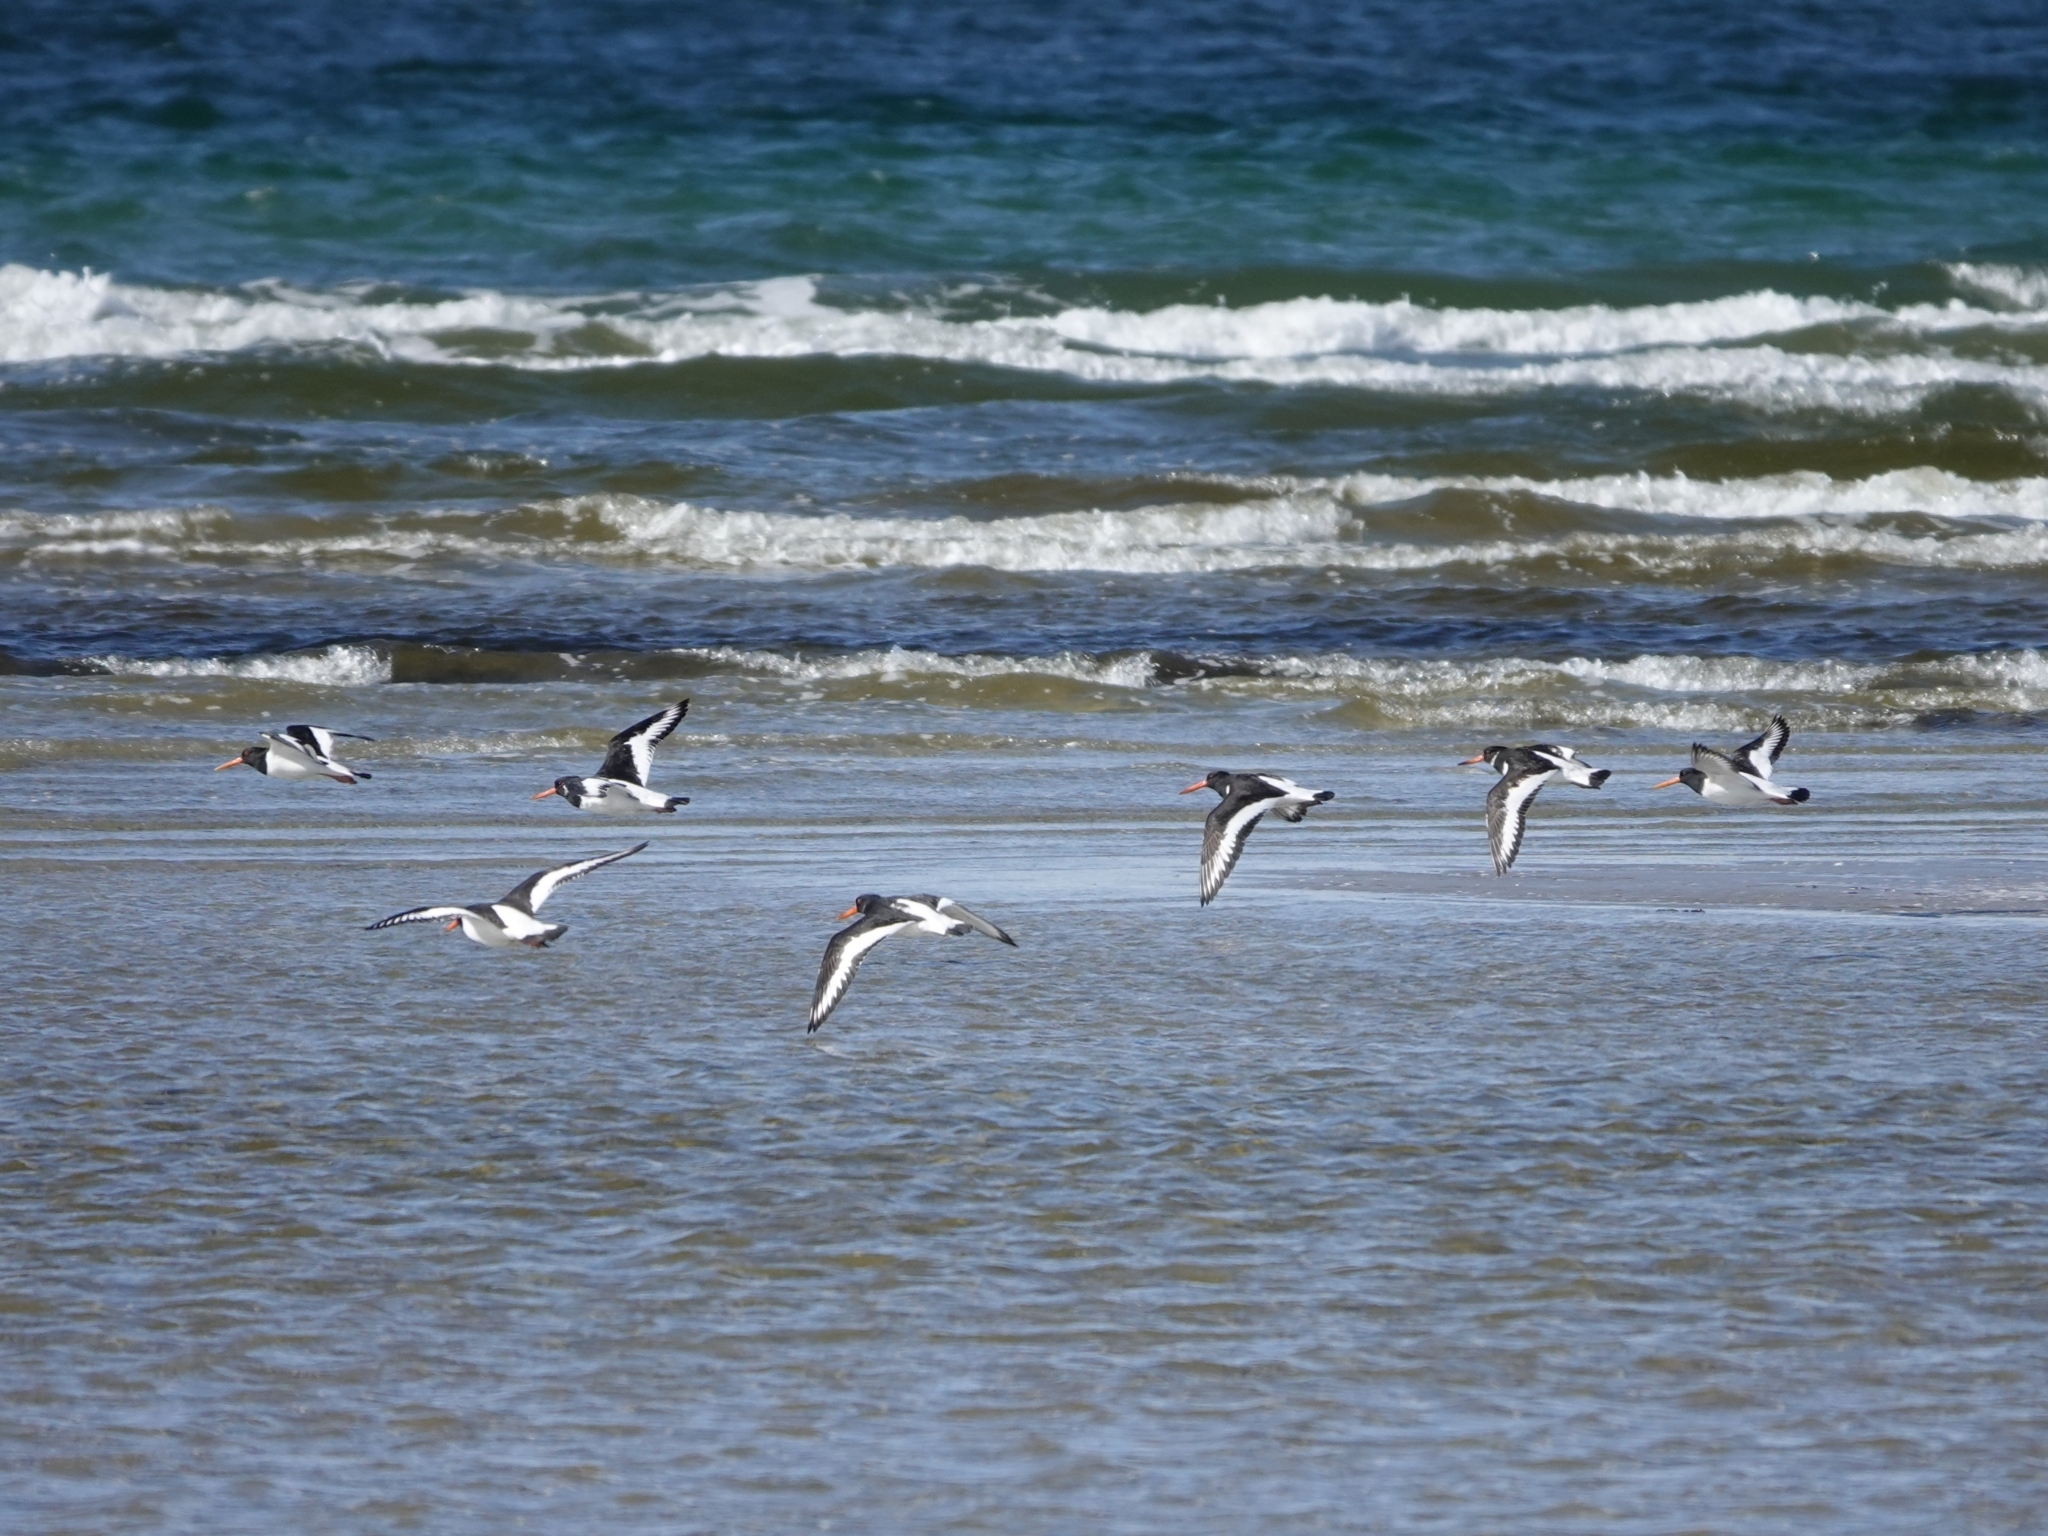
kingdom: Animalia
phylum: Chordata
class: Aves
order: Charadriiformes
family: Haematopodidae
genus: Haematopus
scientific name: Haematopus ostralegus
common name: Eurasian oystercatcher
